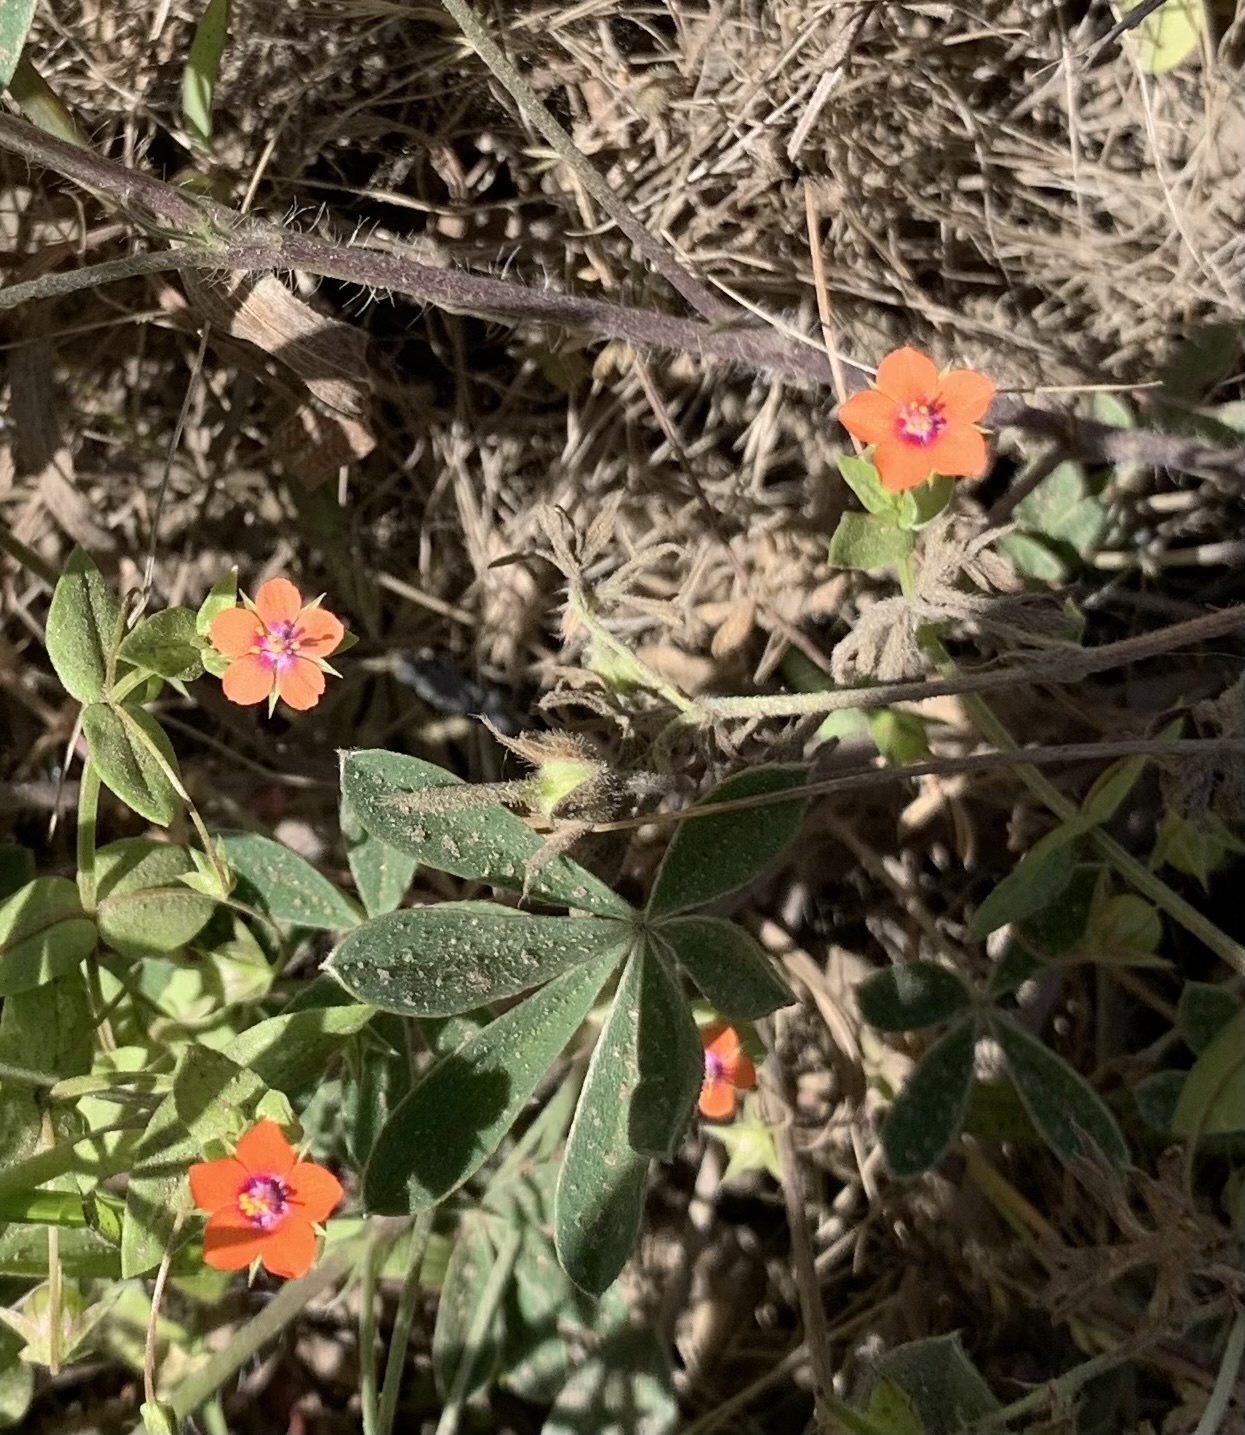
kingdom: Plantae
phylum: Tracheophyta
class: Magnoliopsida
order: Ericales
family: Primulaceae
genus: Lysimachia
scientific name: Lysimachia arvensis
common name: Scarlet pimpernel
